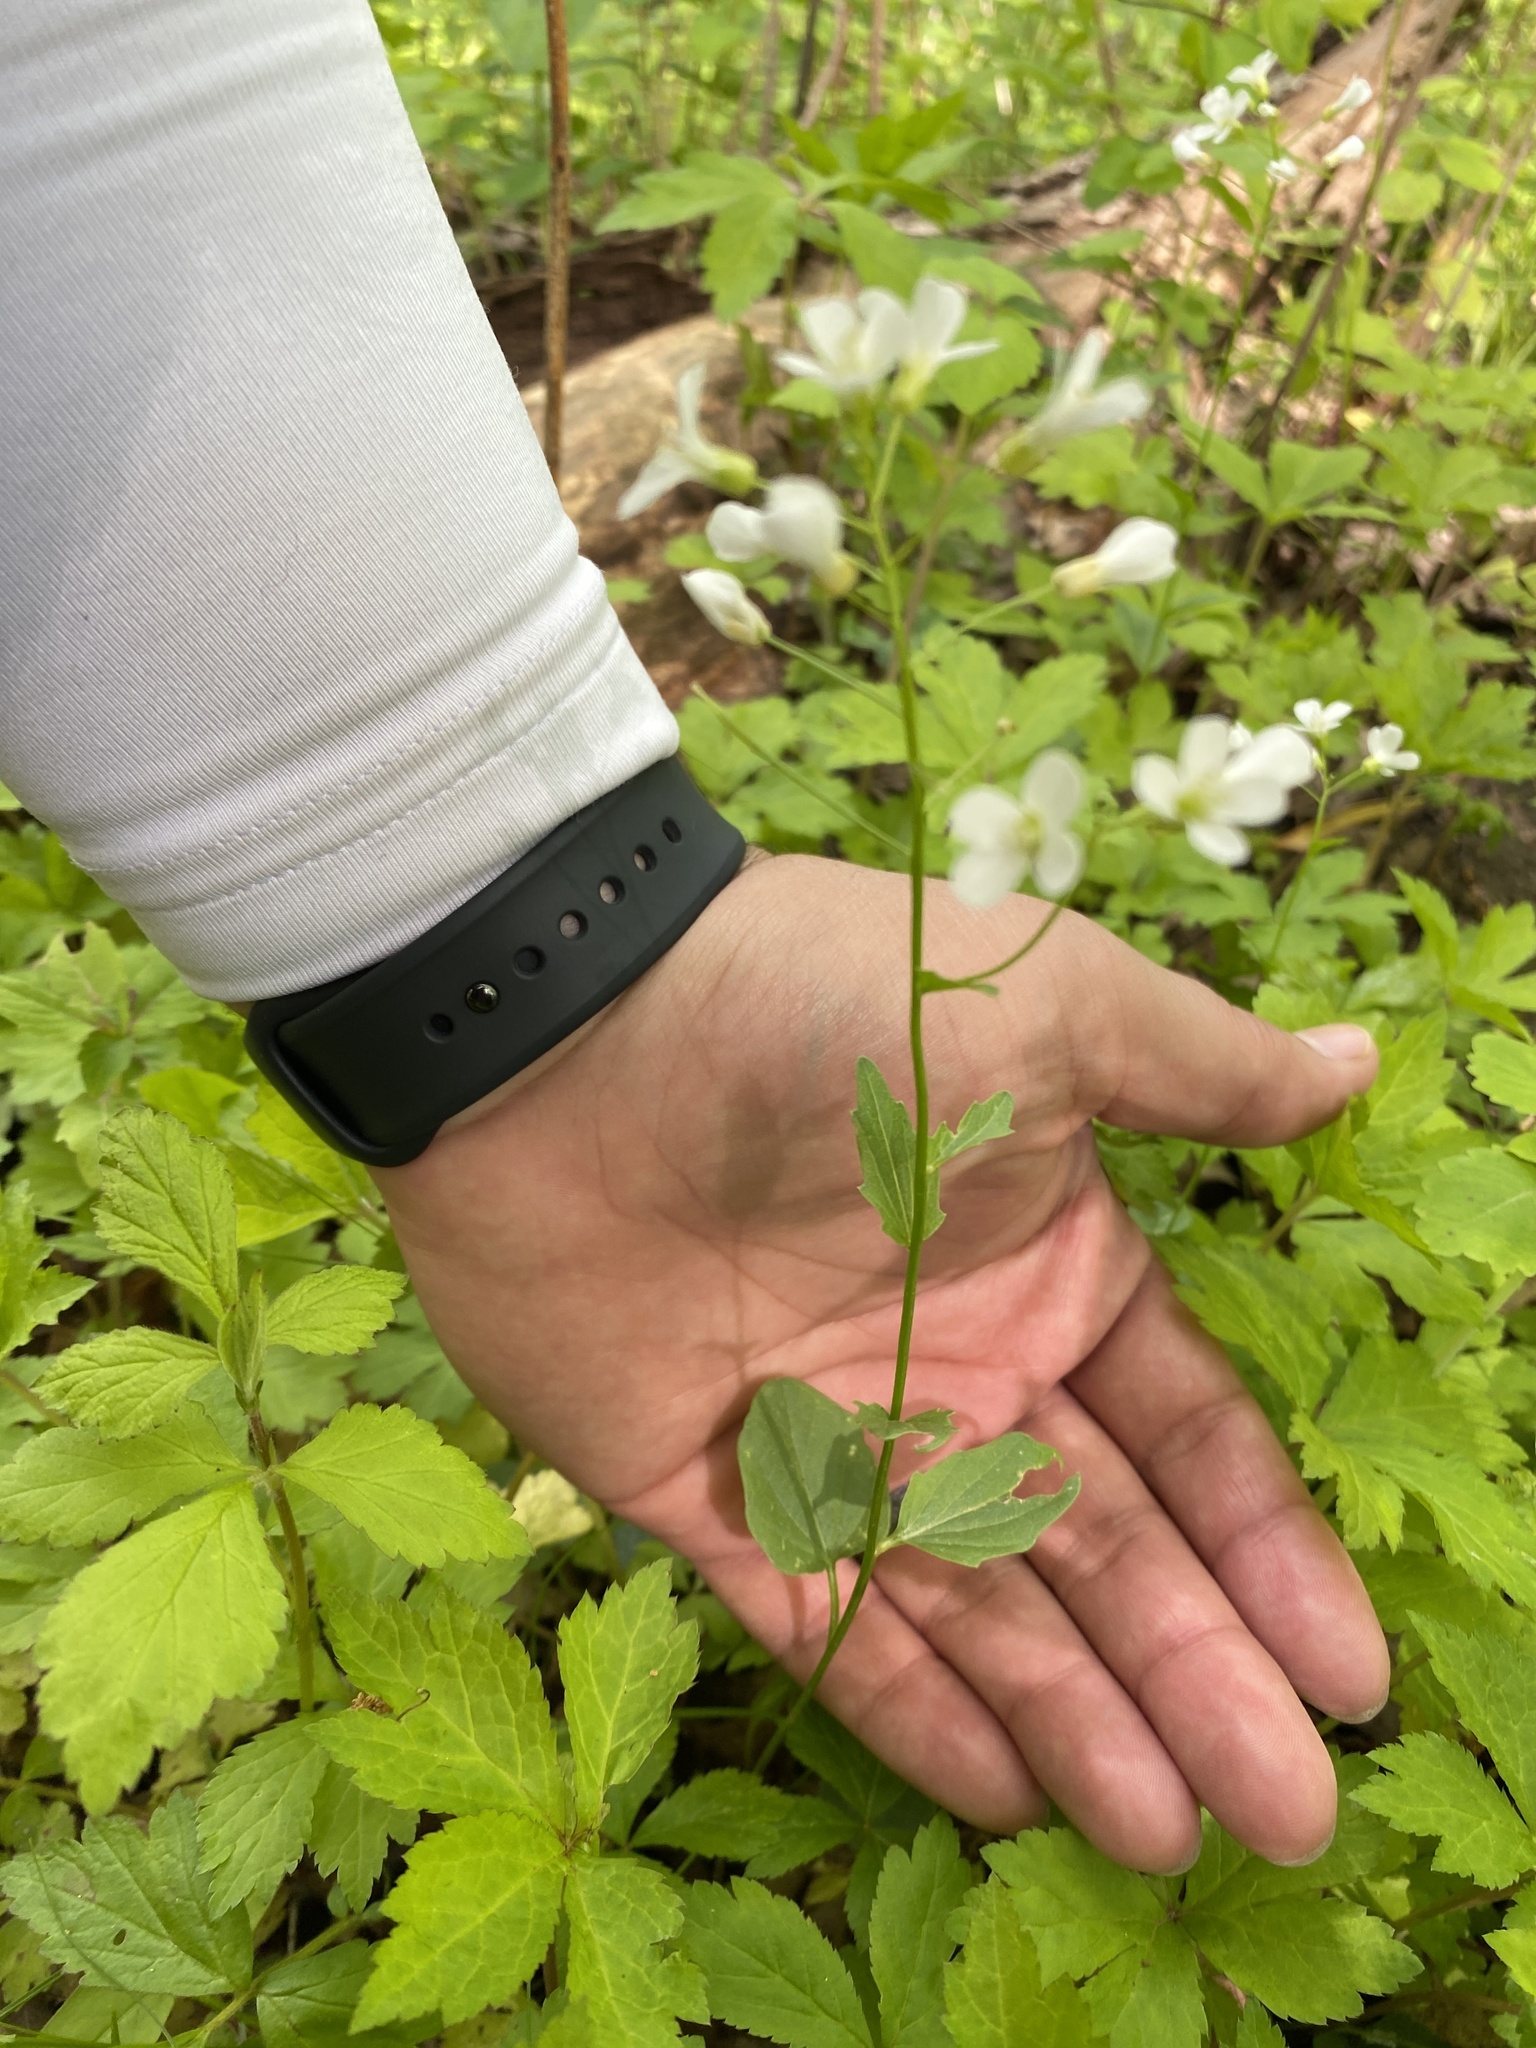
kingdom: Plantae
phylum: Tracheophyta
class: Magnoliopsida
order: Brassicales
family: Brassicaceae
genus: Cardamine
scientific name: Cardamine bulbosa
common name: Spring cress
